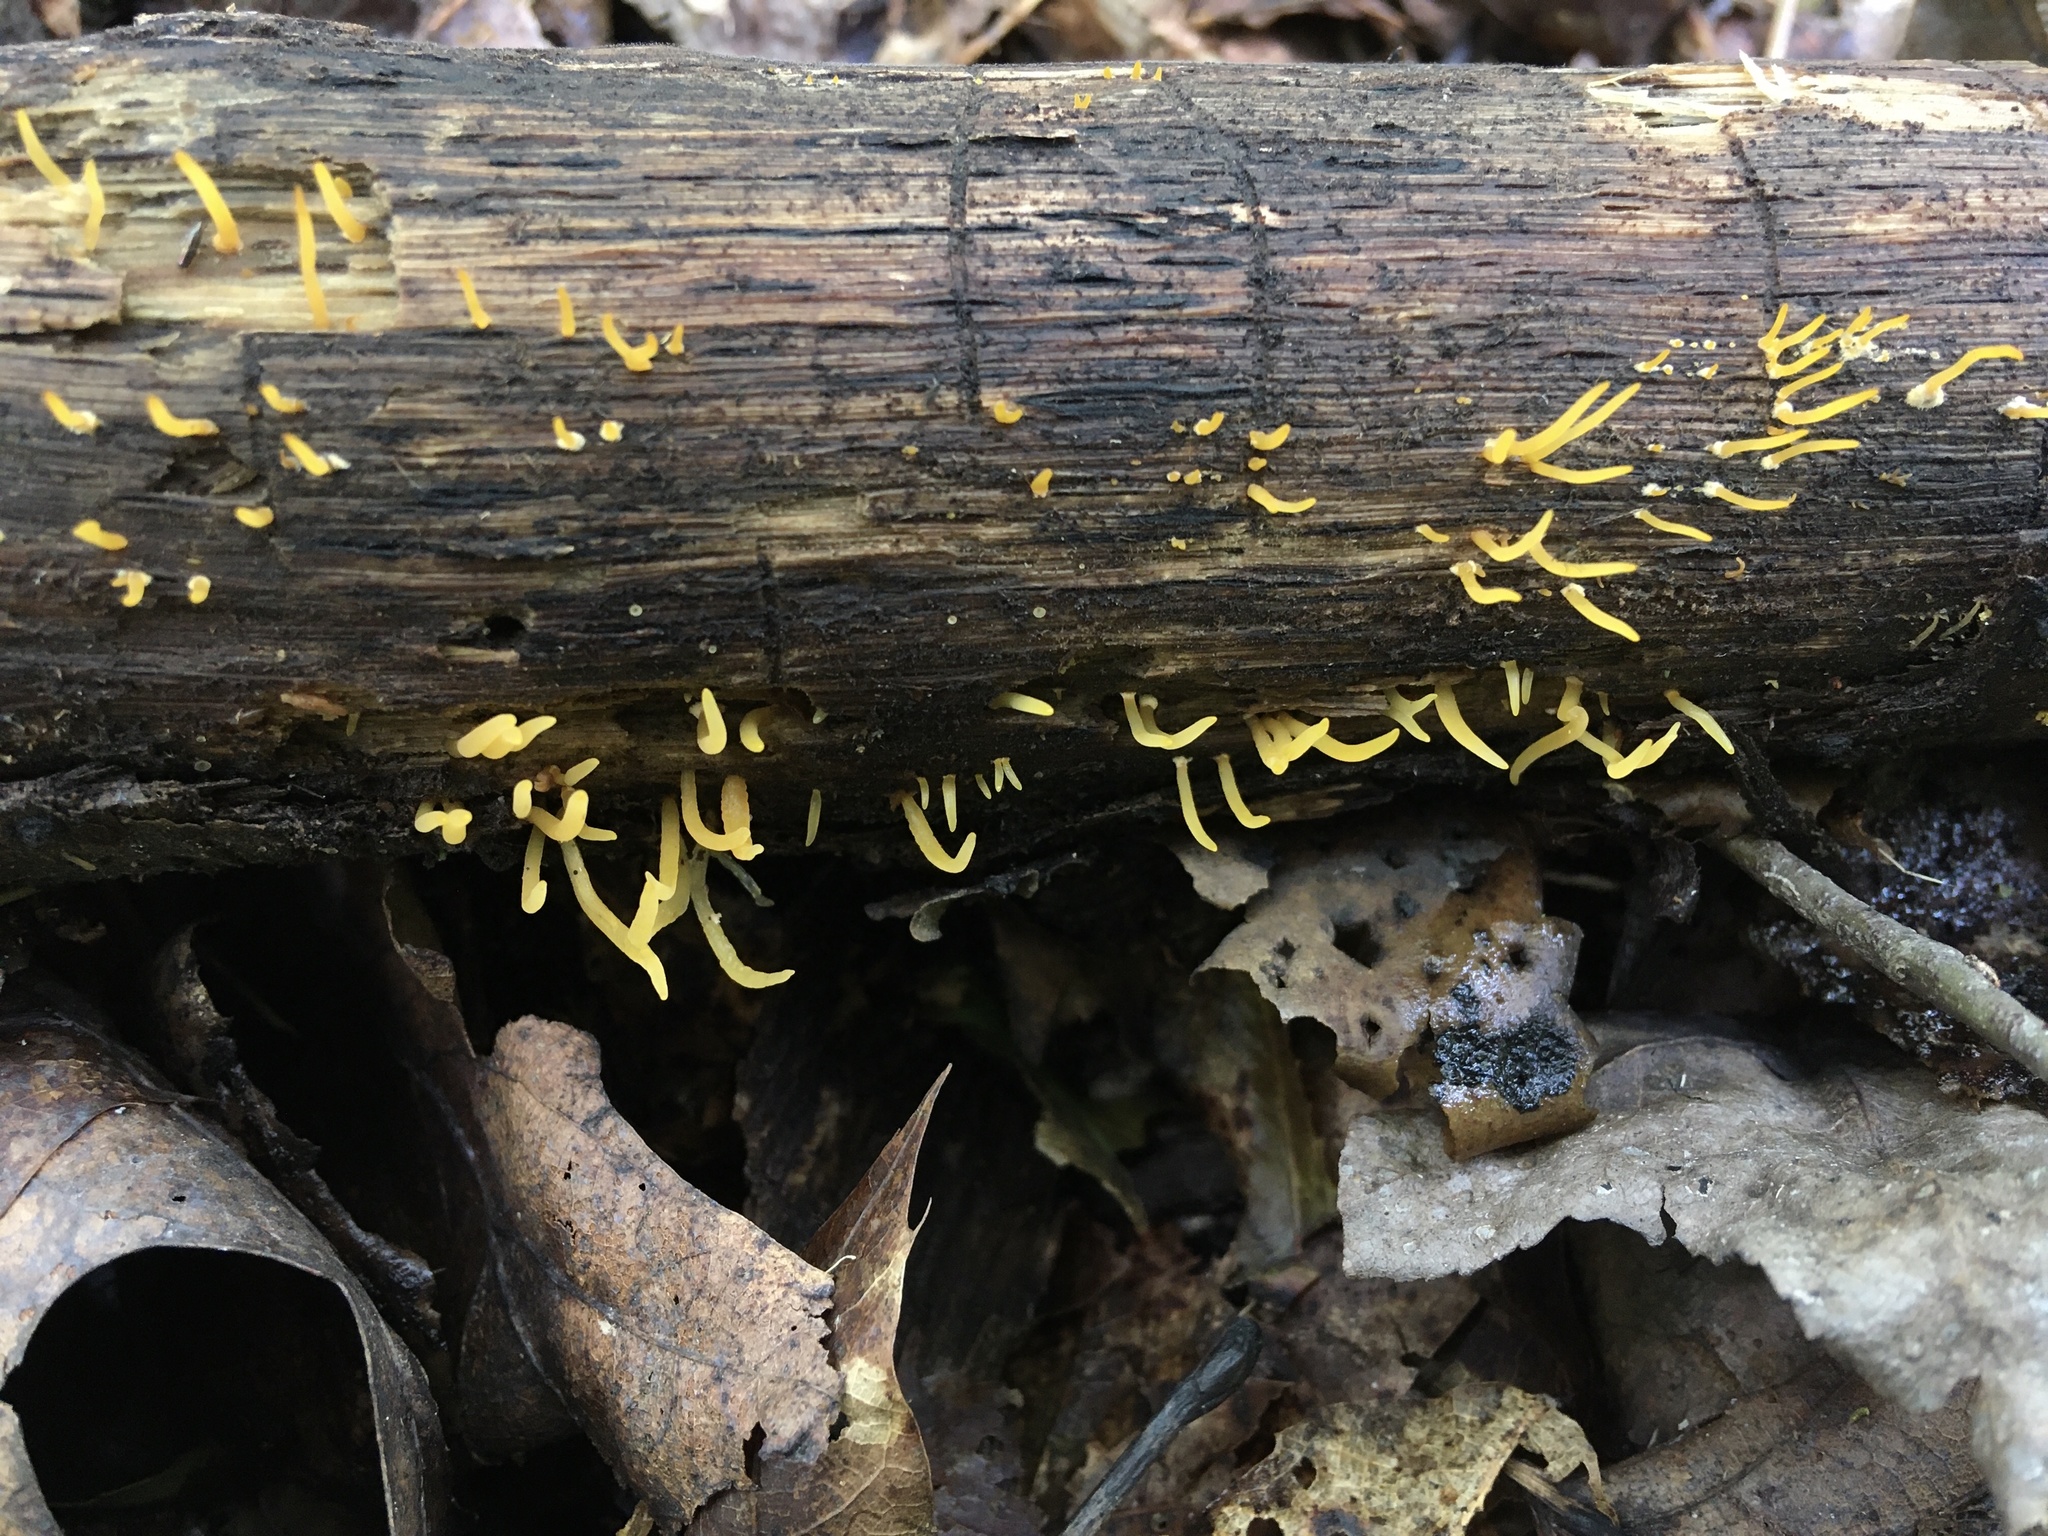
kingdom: Fungi
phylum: Basidiomycota
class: Dacrymycetes
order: Dacrymycetales
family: Dacrymycetaceae
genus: Calocera
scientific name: Calocera cornea
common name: Small stagshorn
